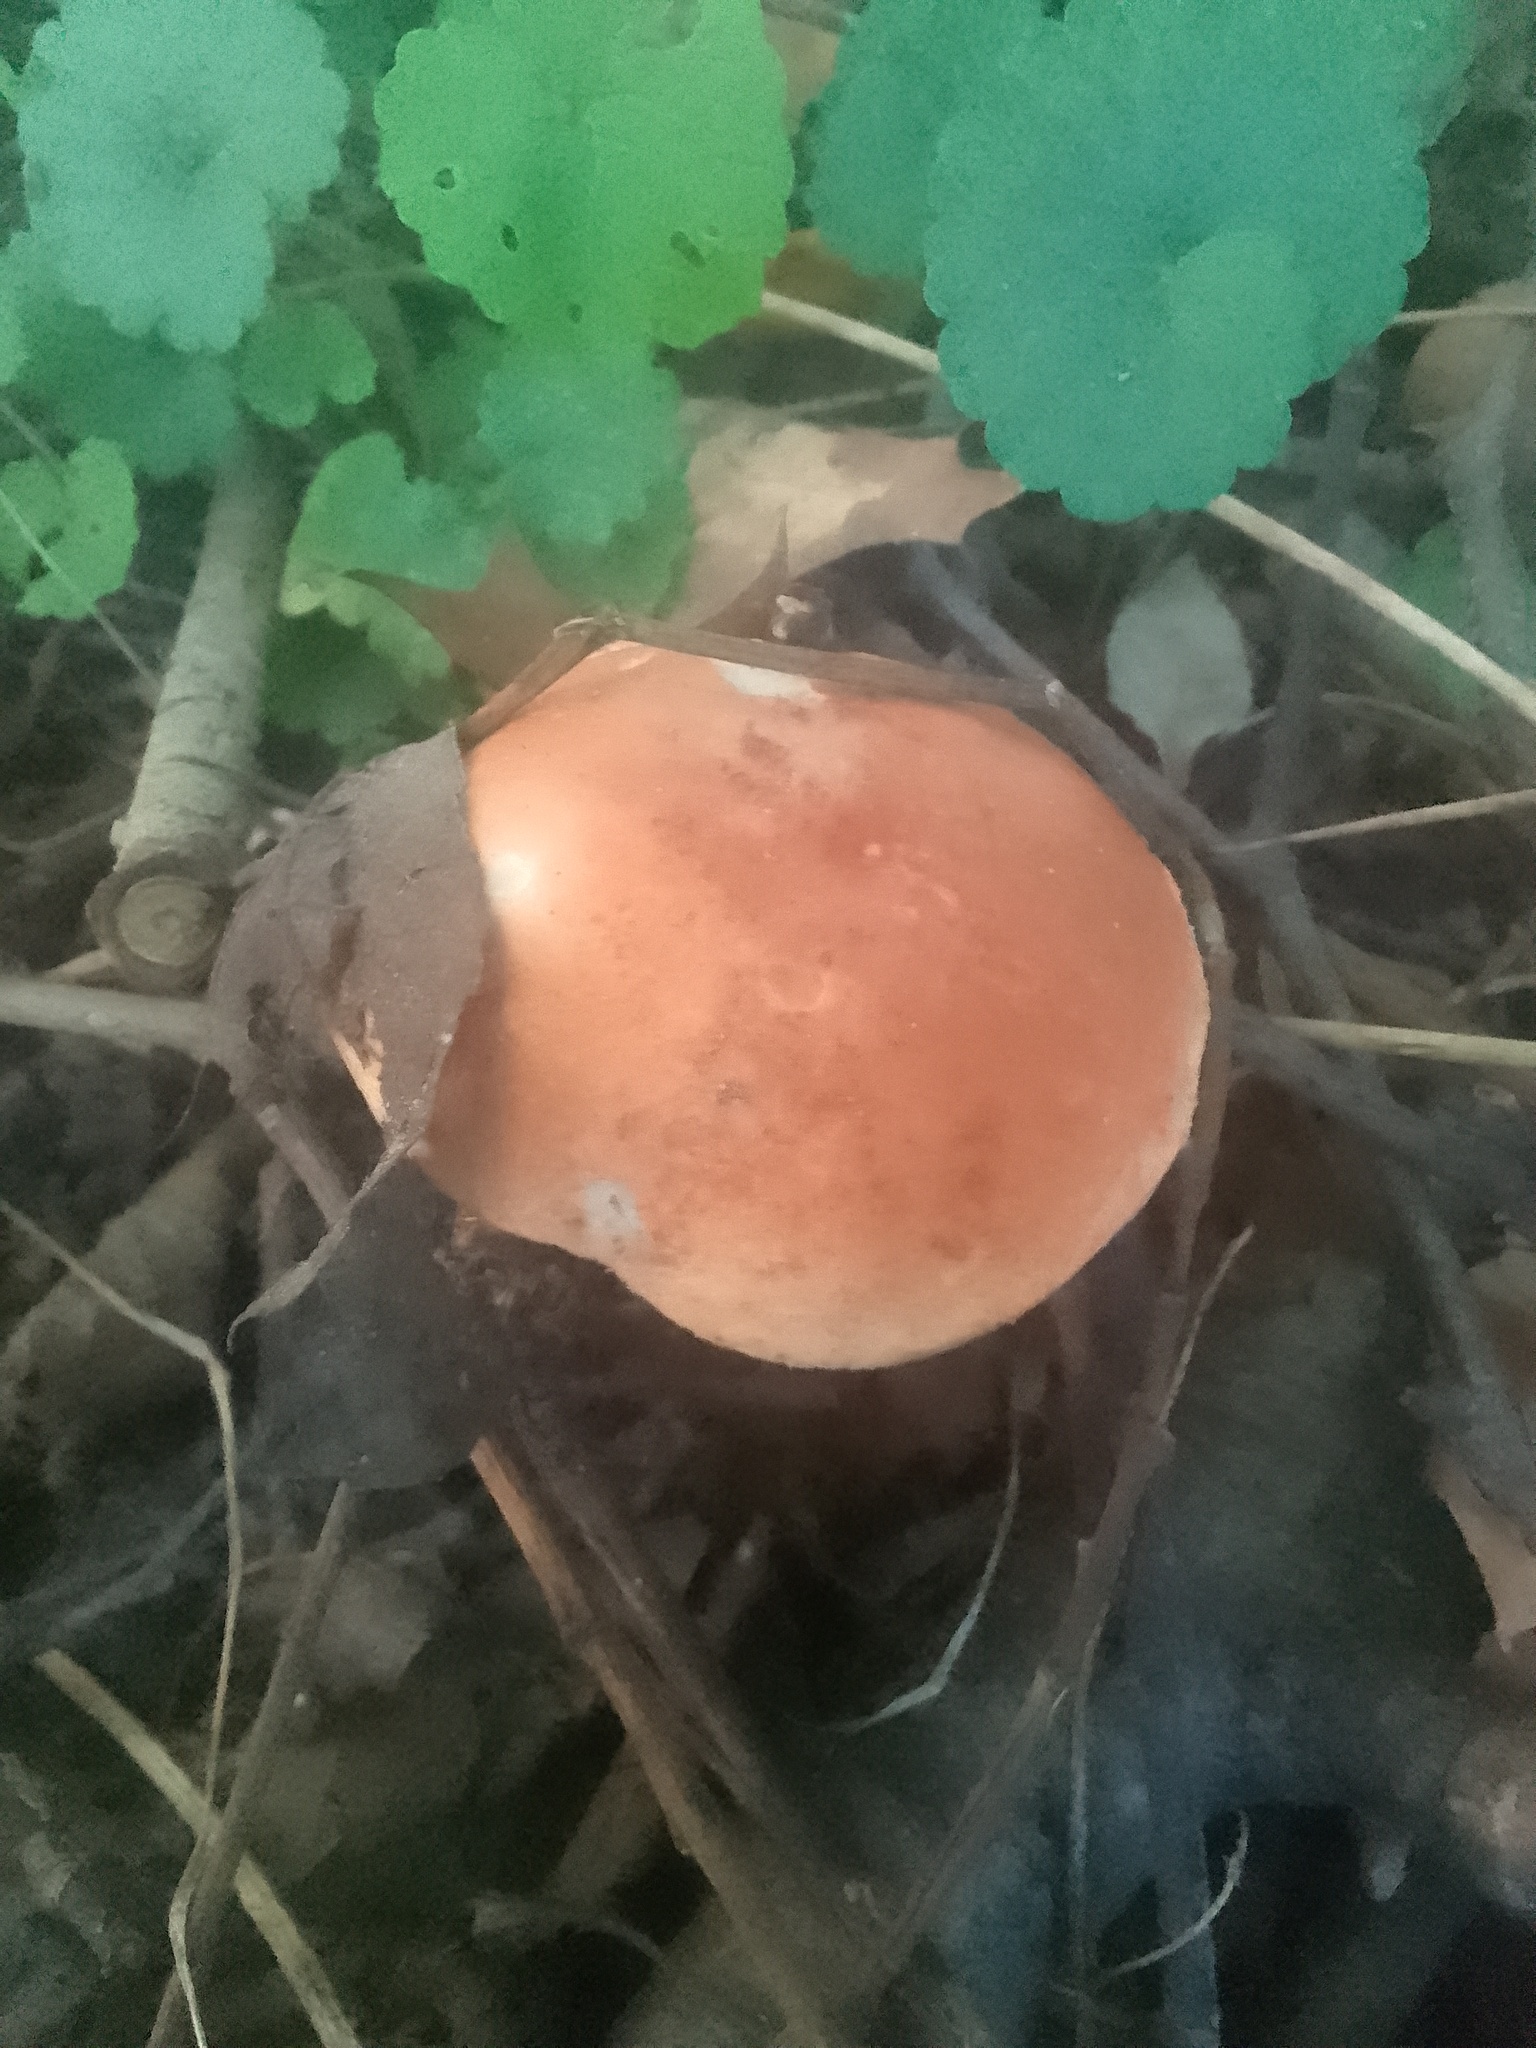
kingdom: Fungi
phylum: Basidiomycota
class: Agaricomycetes
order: Boletales
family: Boletaceae
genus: Leccinum
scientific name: Leccinum aurantiacum
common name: Orange bolete
